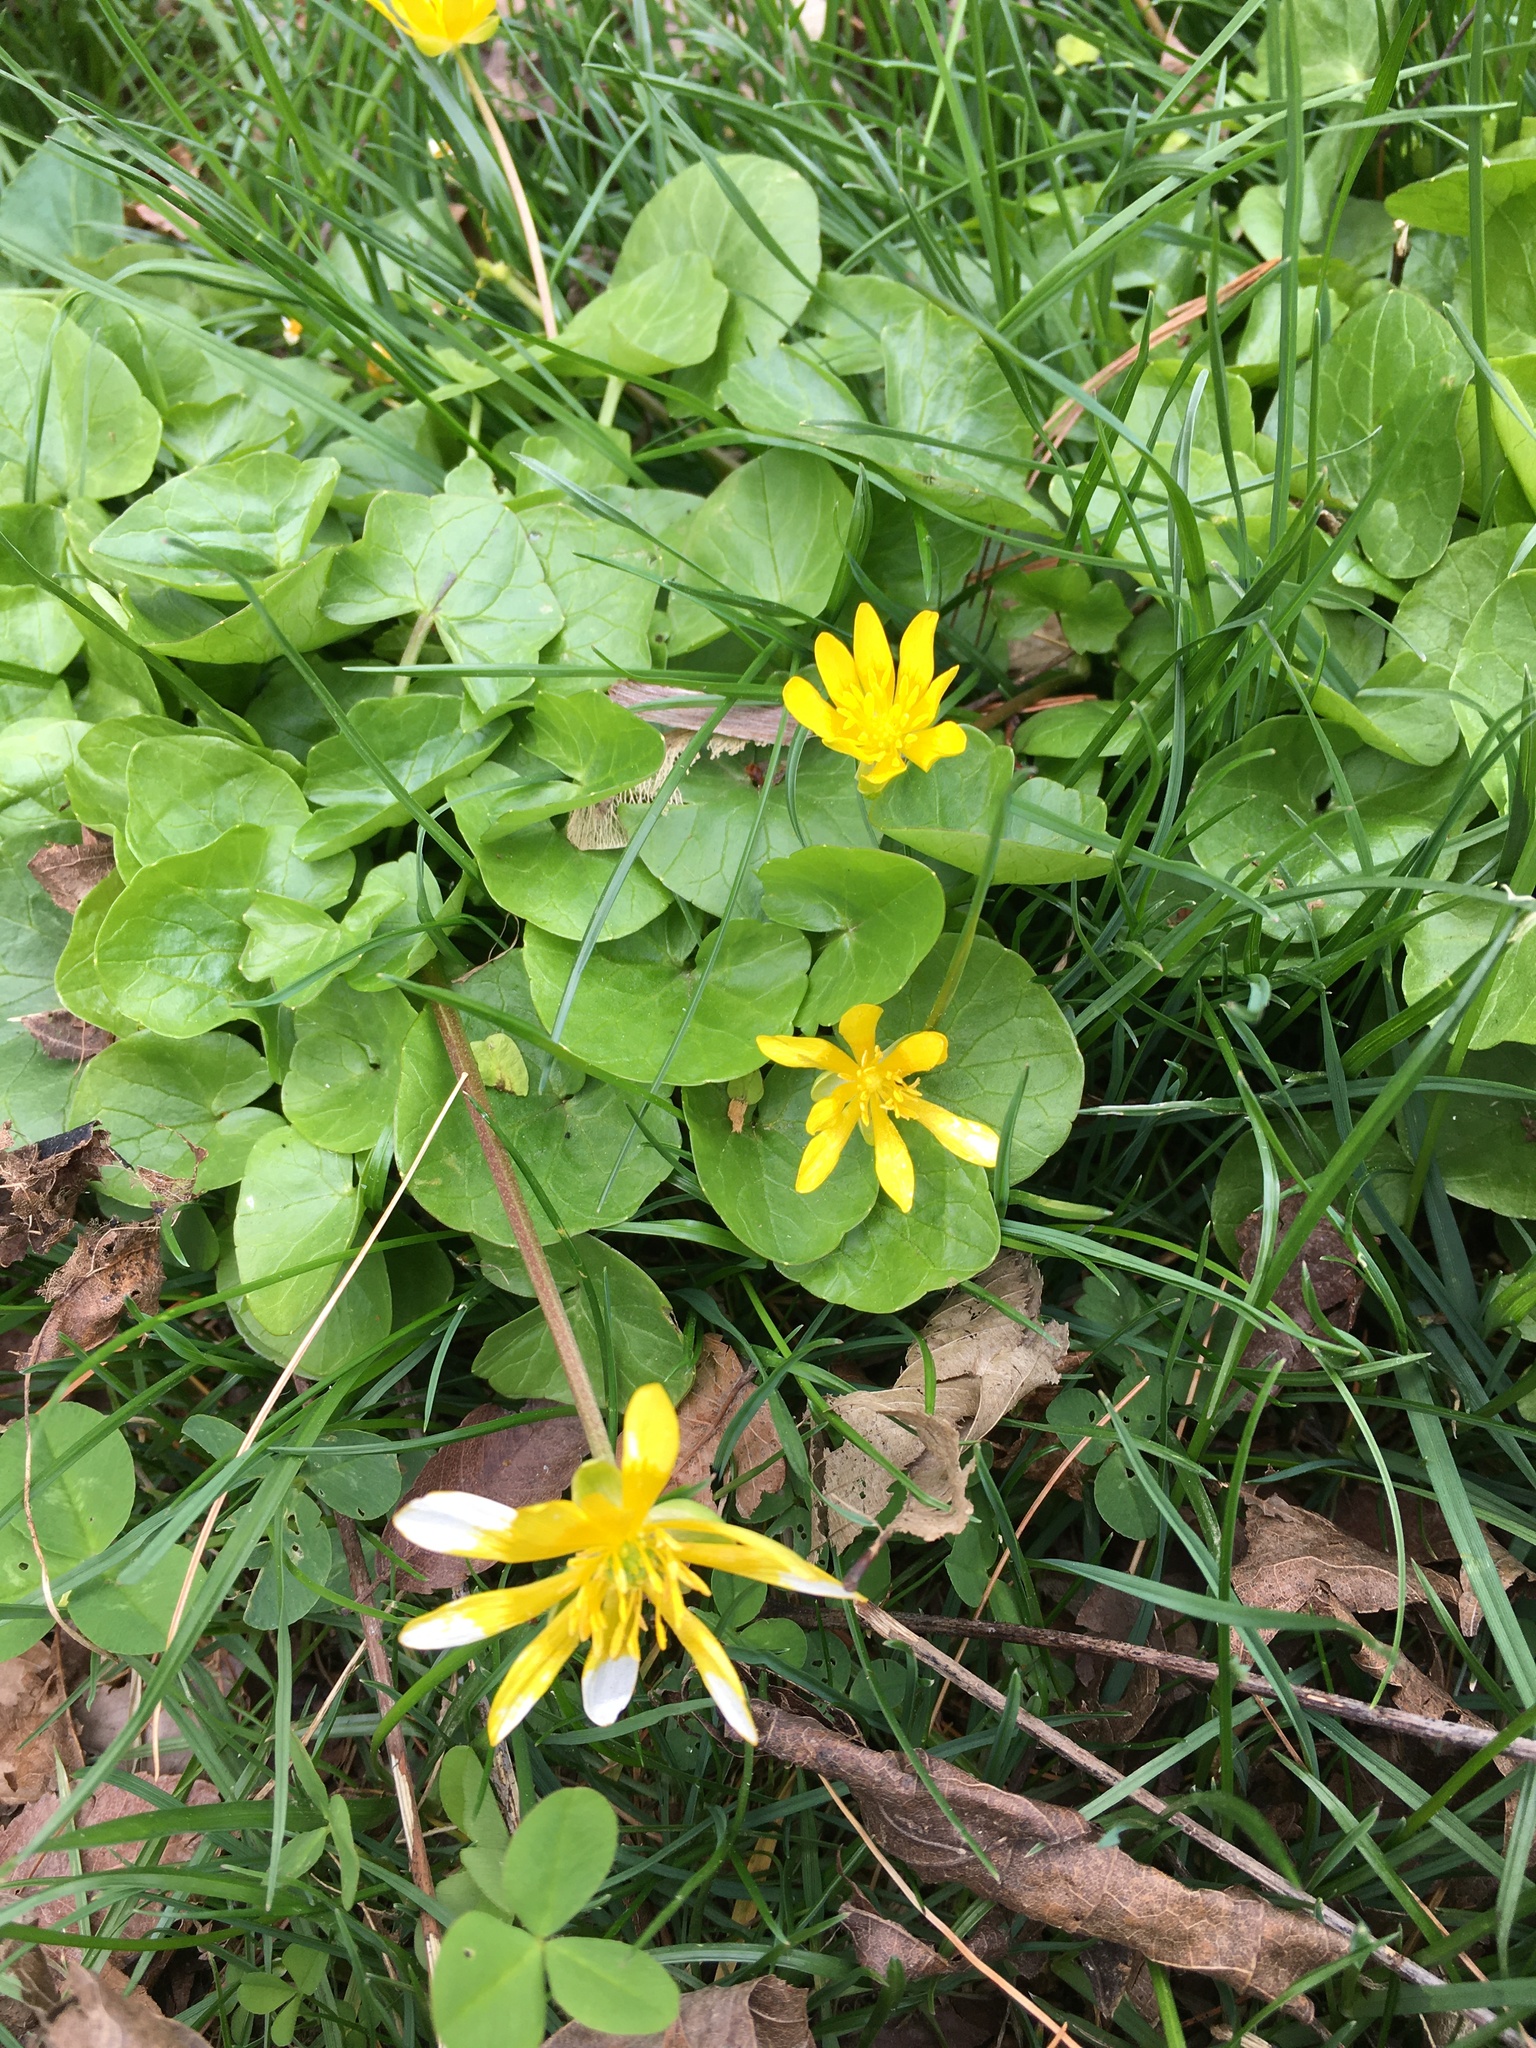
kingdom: Plantae
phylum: Tracheophyta
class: Magnoliopsida
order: Ranunculales
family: Ranunculaceae
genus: Ficaria
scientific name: Ficaria verna
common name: Lesser celandine
